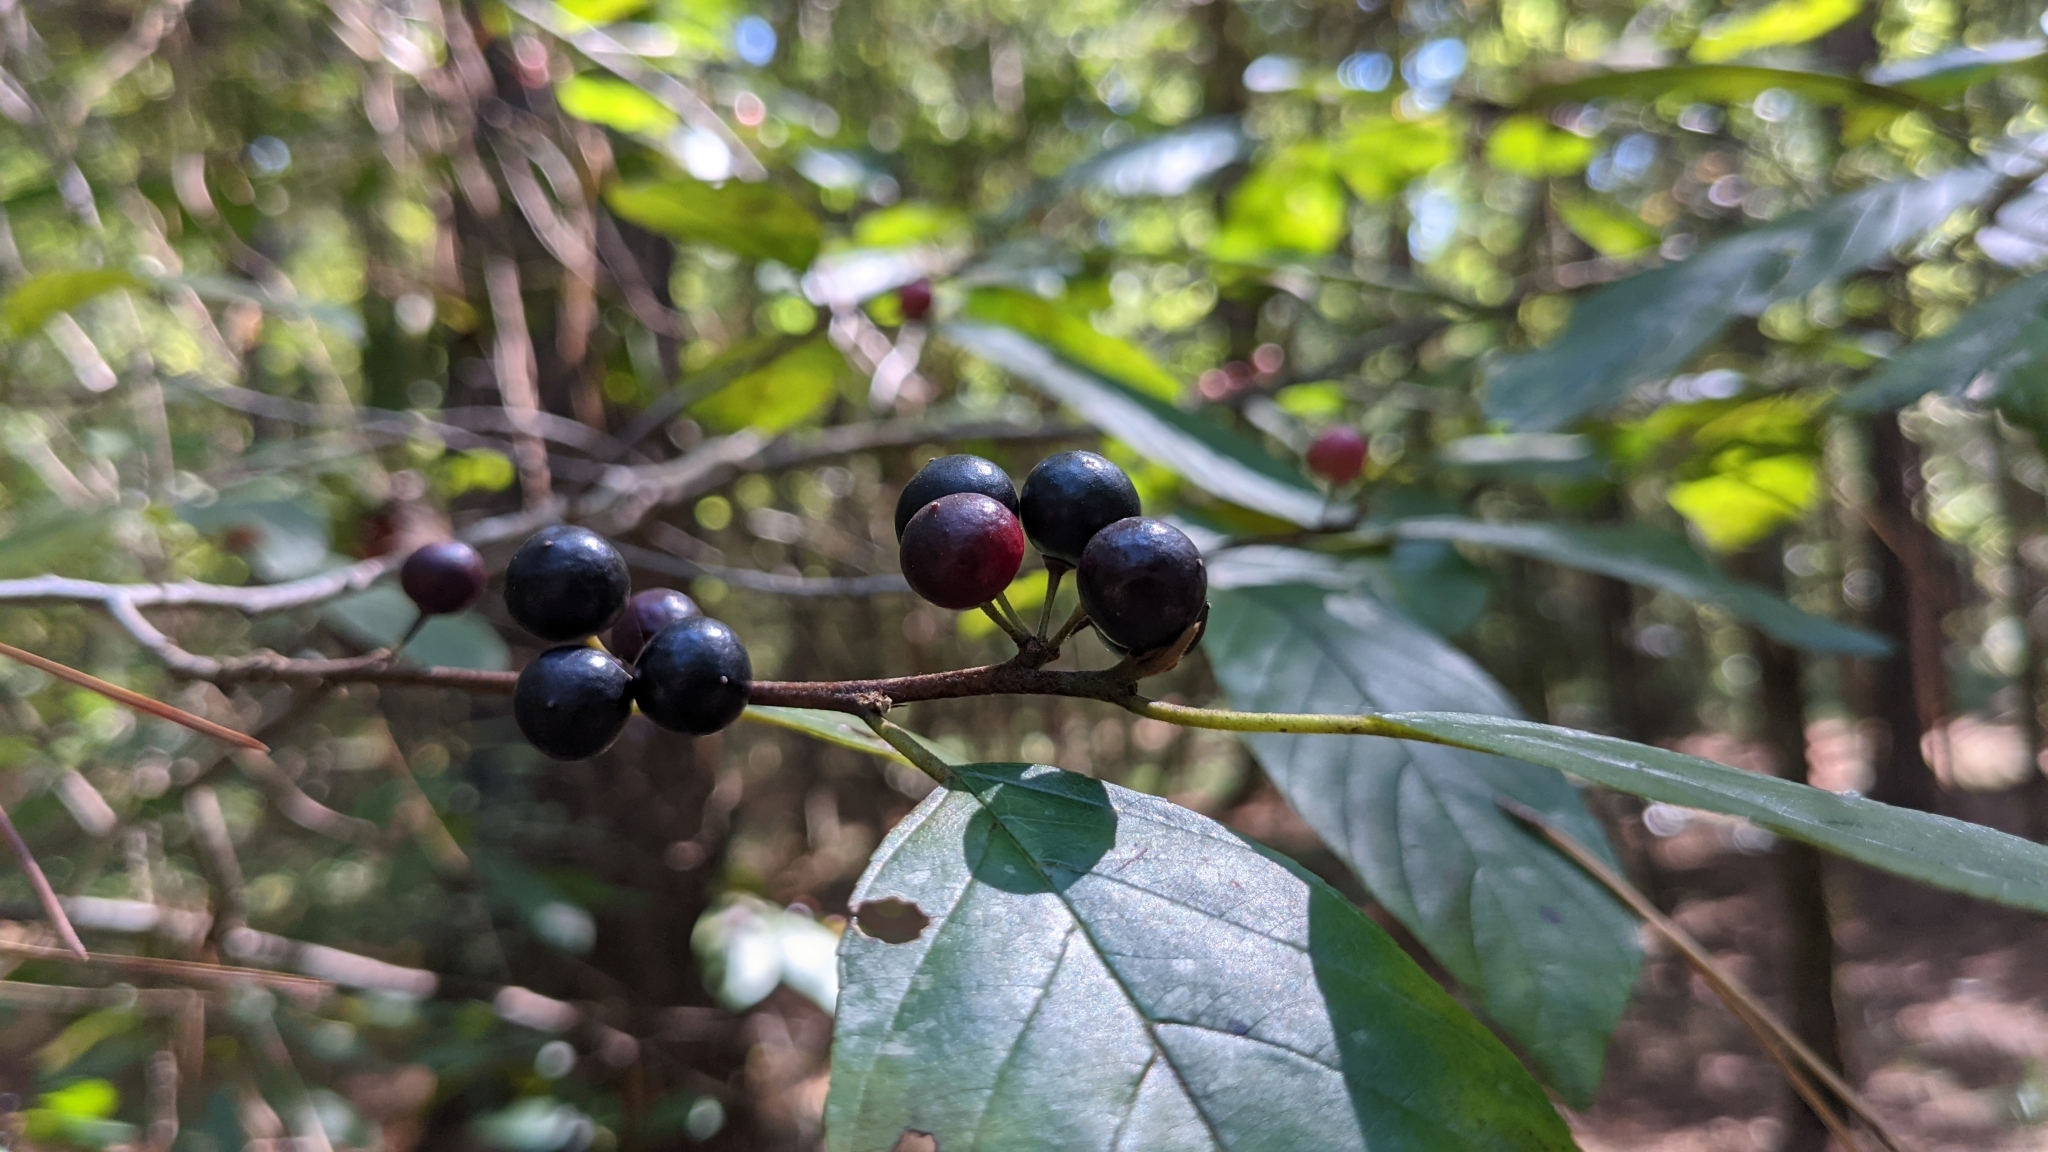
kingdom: Plantae
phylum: Tracheophyta
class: Magnoliopsida
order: Rosales
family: Rhamnaceae
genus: Frangula
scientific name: Frangula caroliniana
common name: Carolina buckthorn
